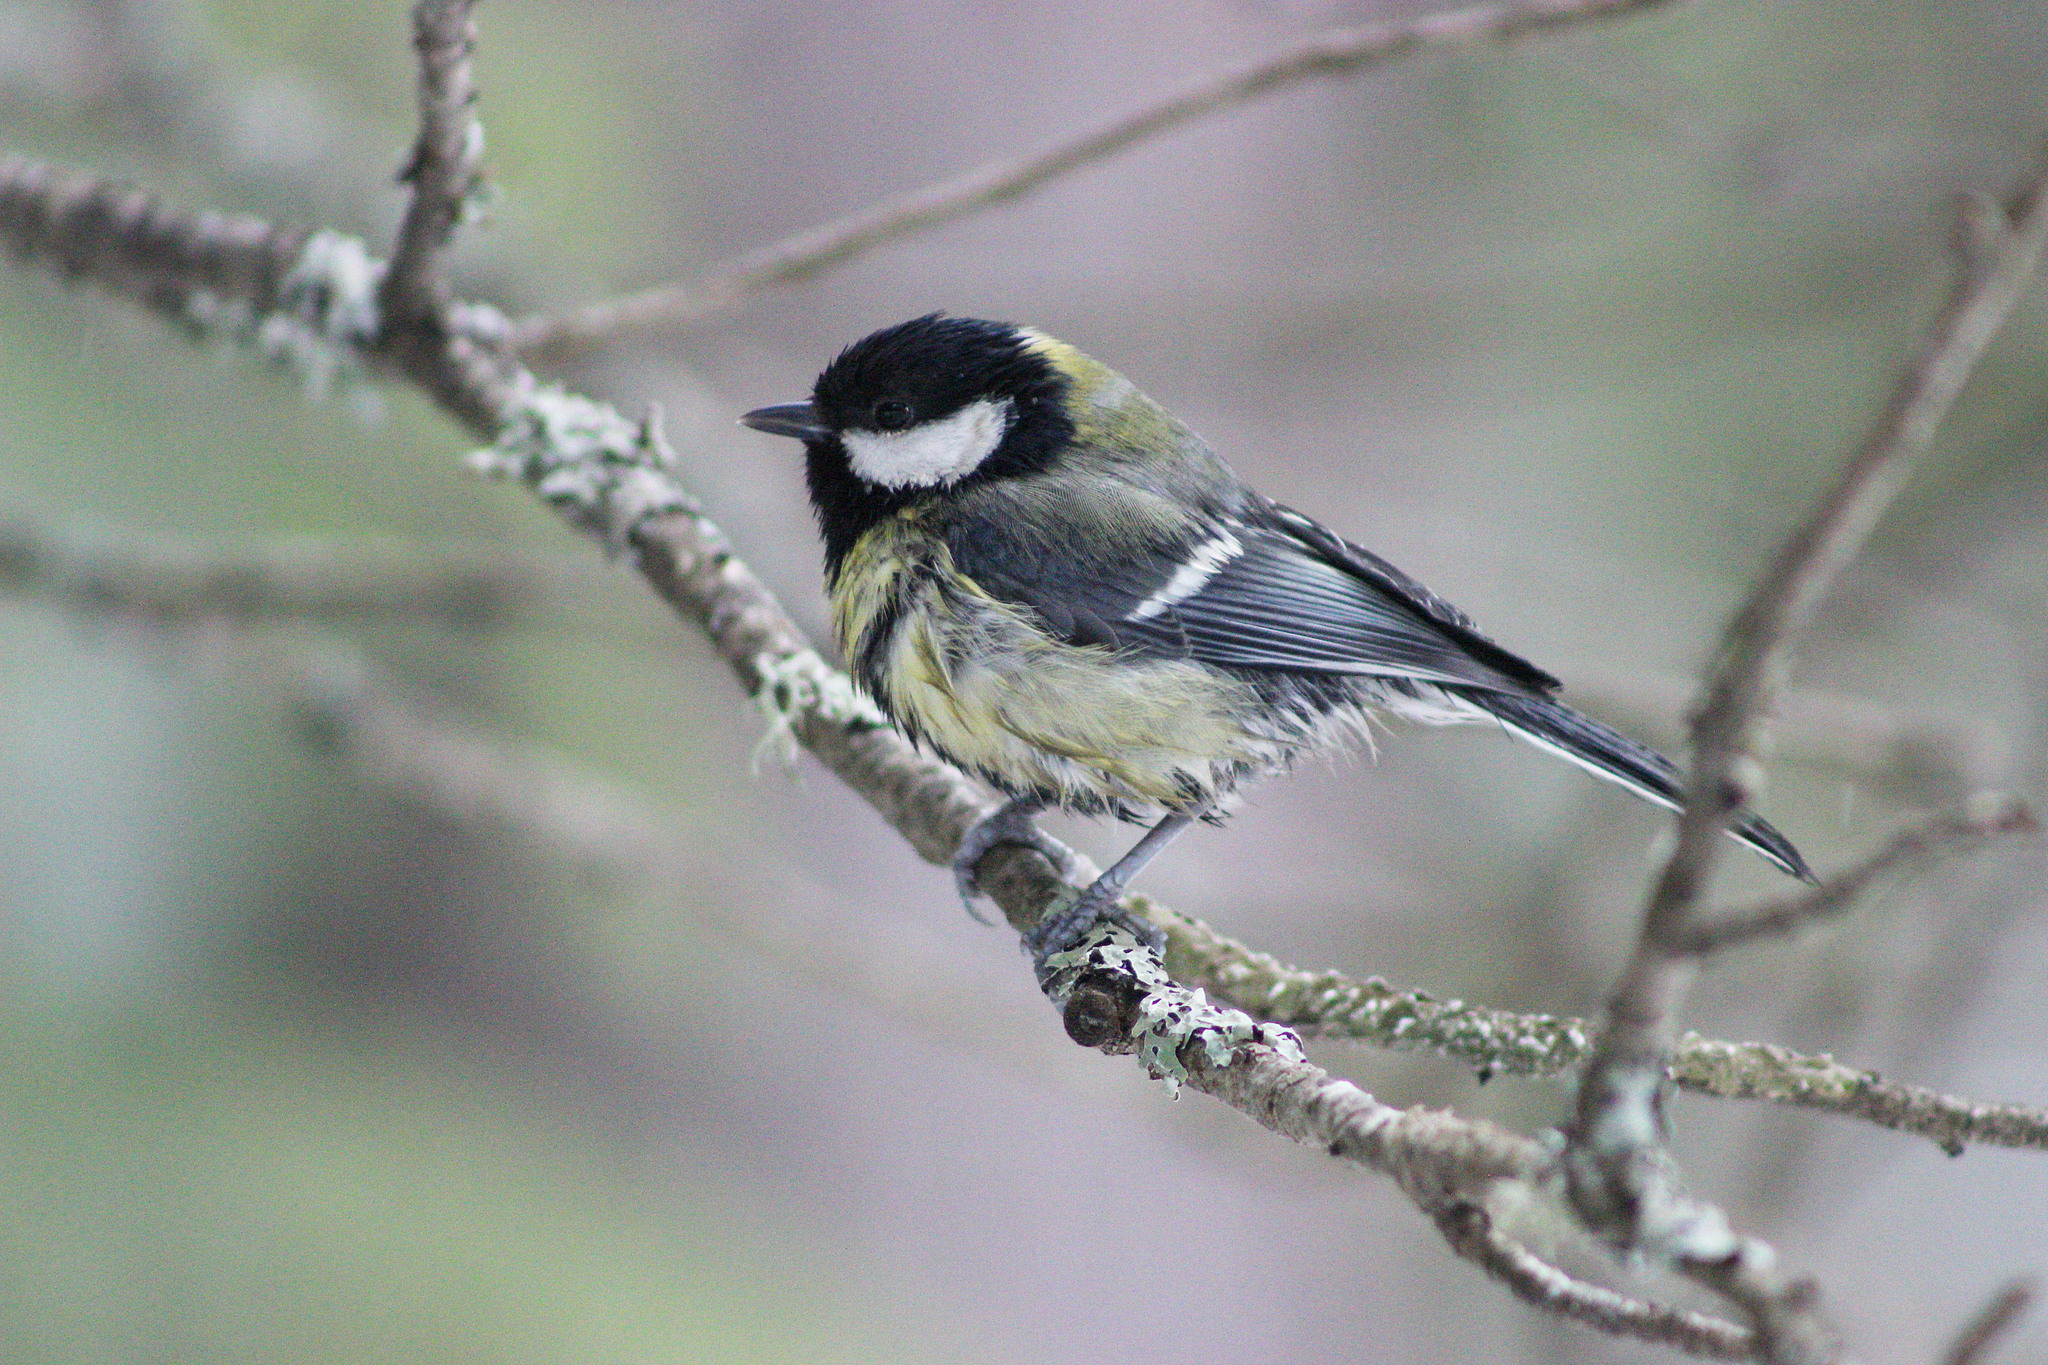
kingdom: Animalia
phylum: Chordata
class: Aves
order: Passeriformes
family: Paridae
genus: Parus
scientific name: Parus major
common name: Great tit
